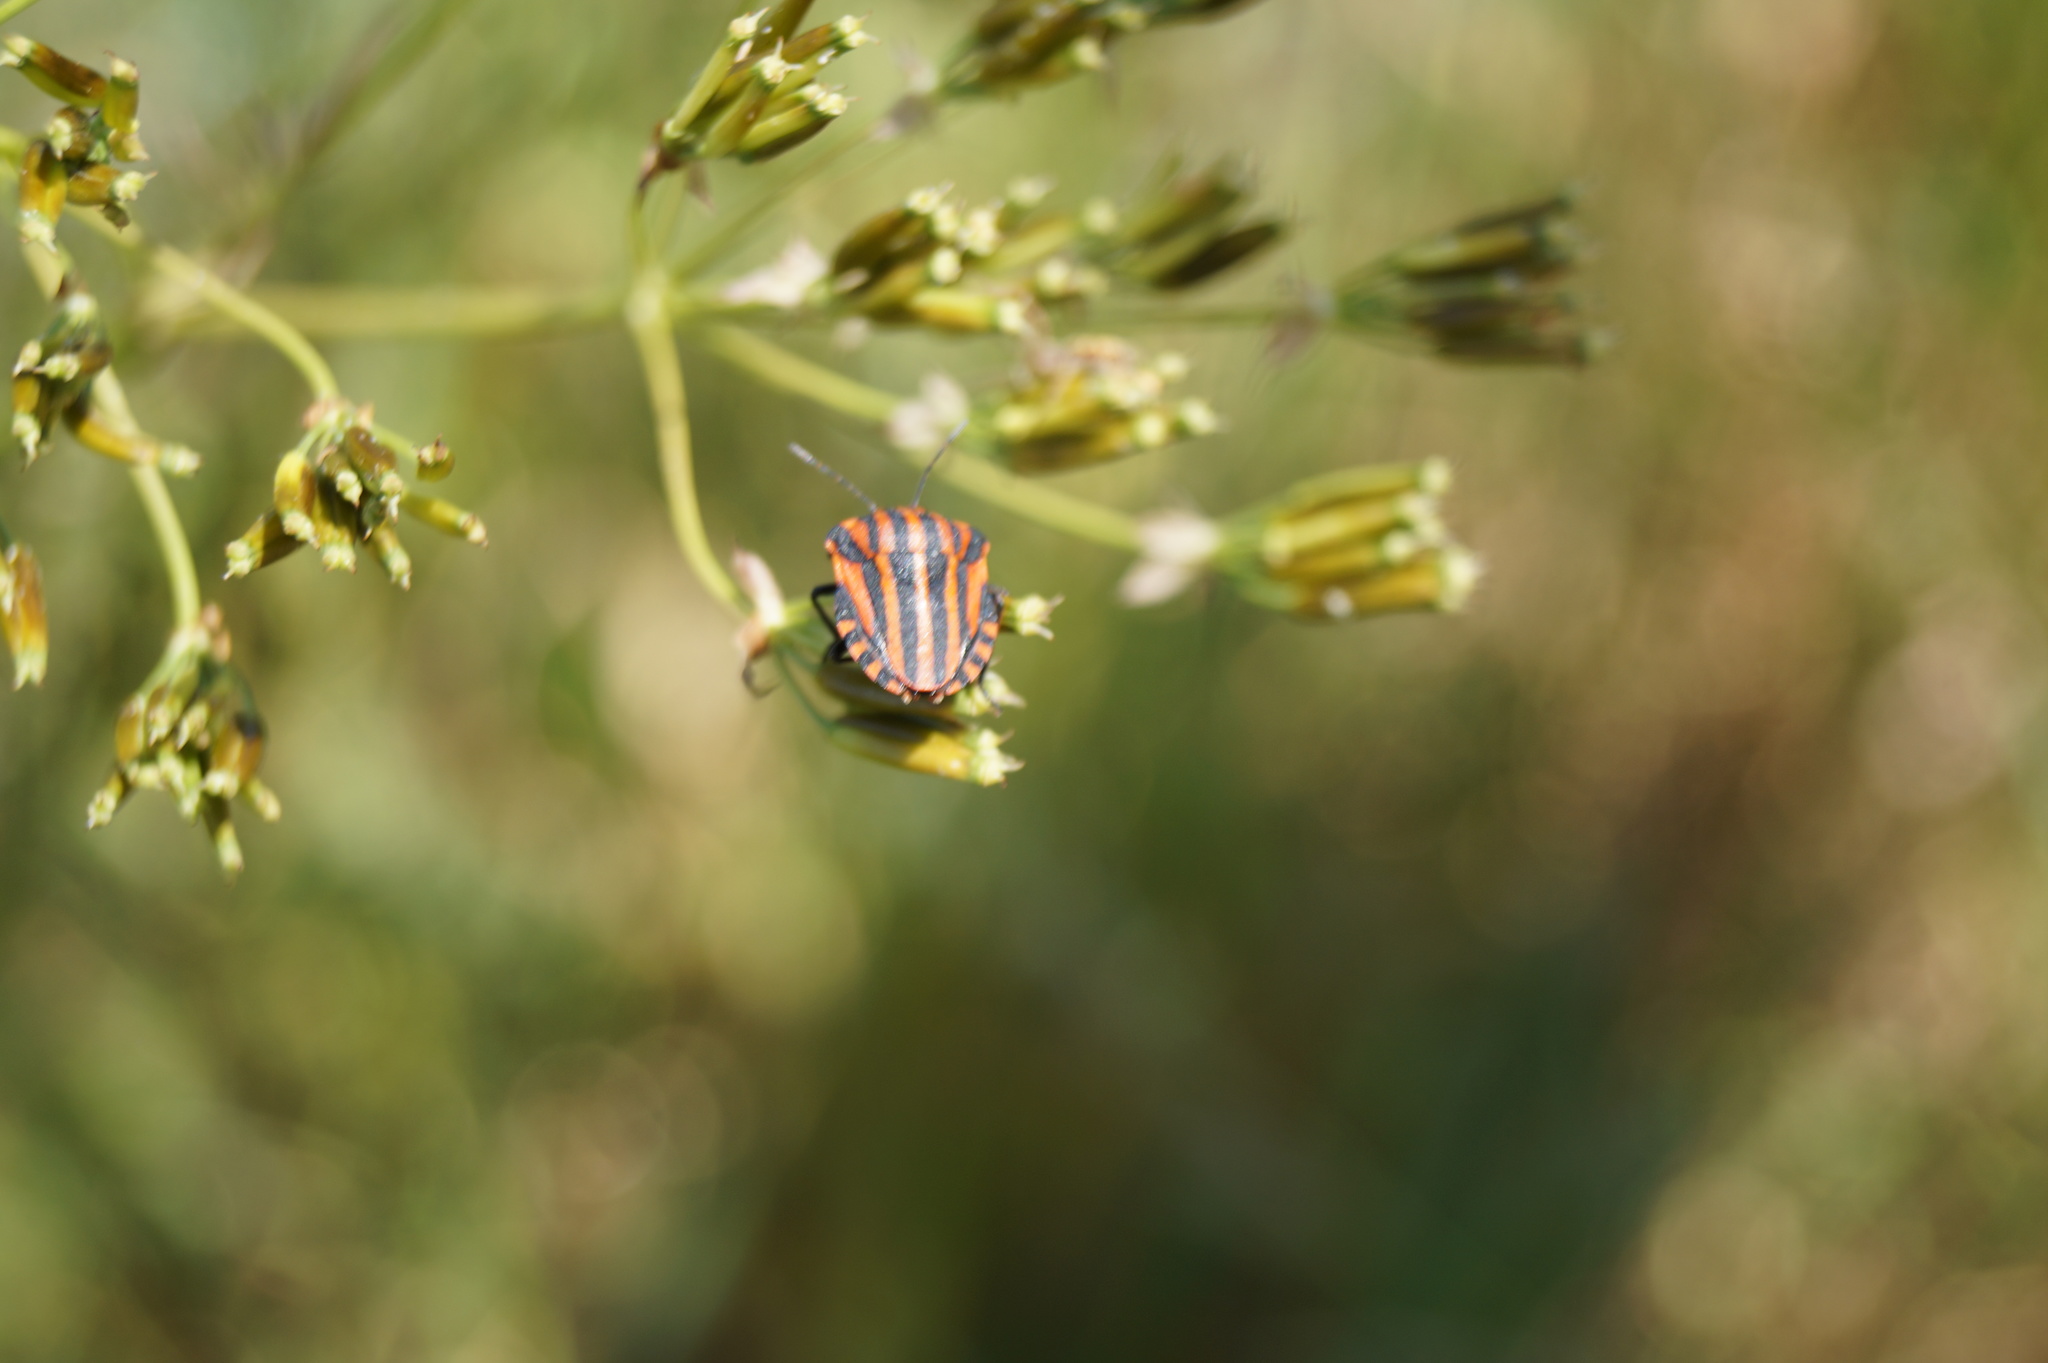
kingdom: Animalia
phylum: Arthropoda
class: Insecta
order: Hemiptera
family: Pentatomidae
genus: Graphosoma
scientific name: Graphosoma italicum
